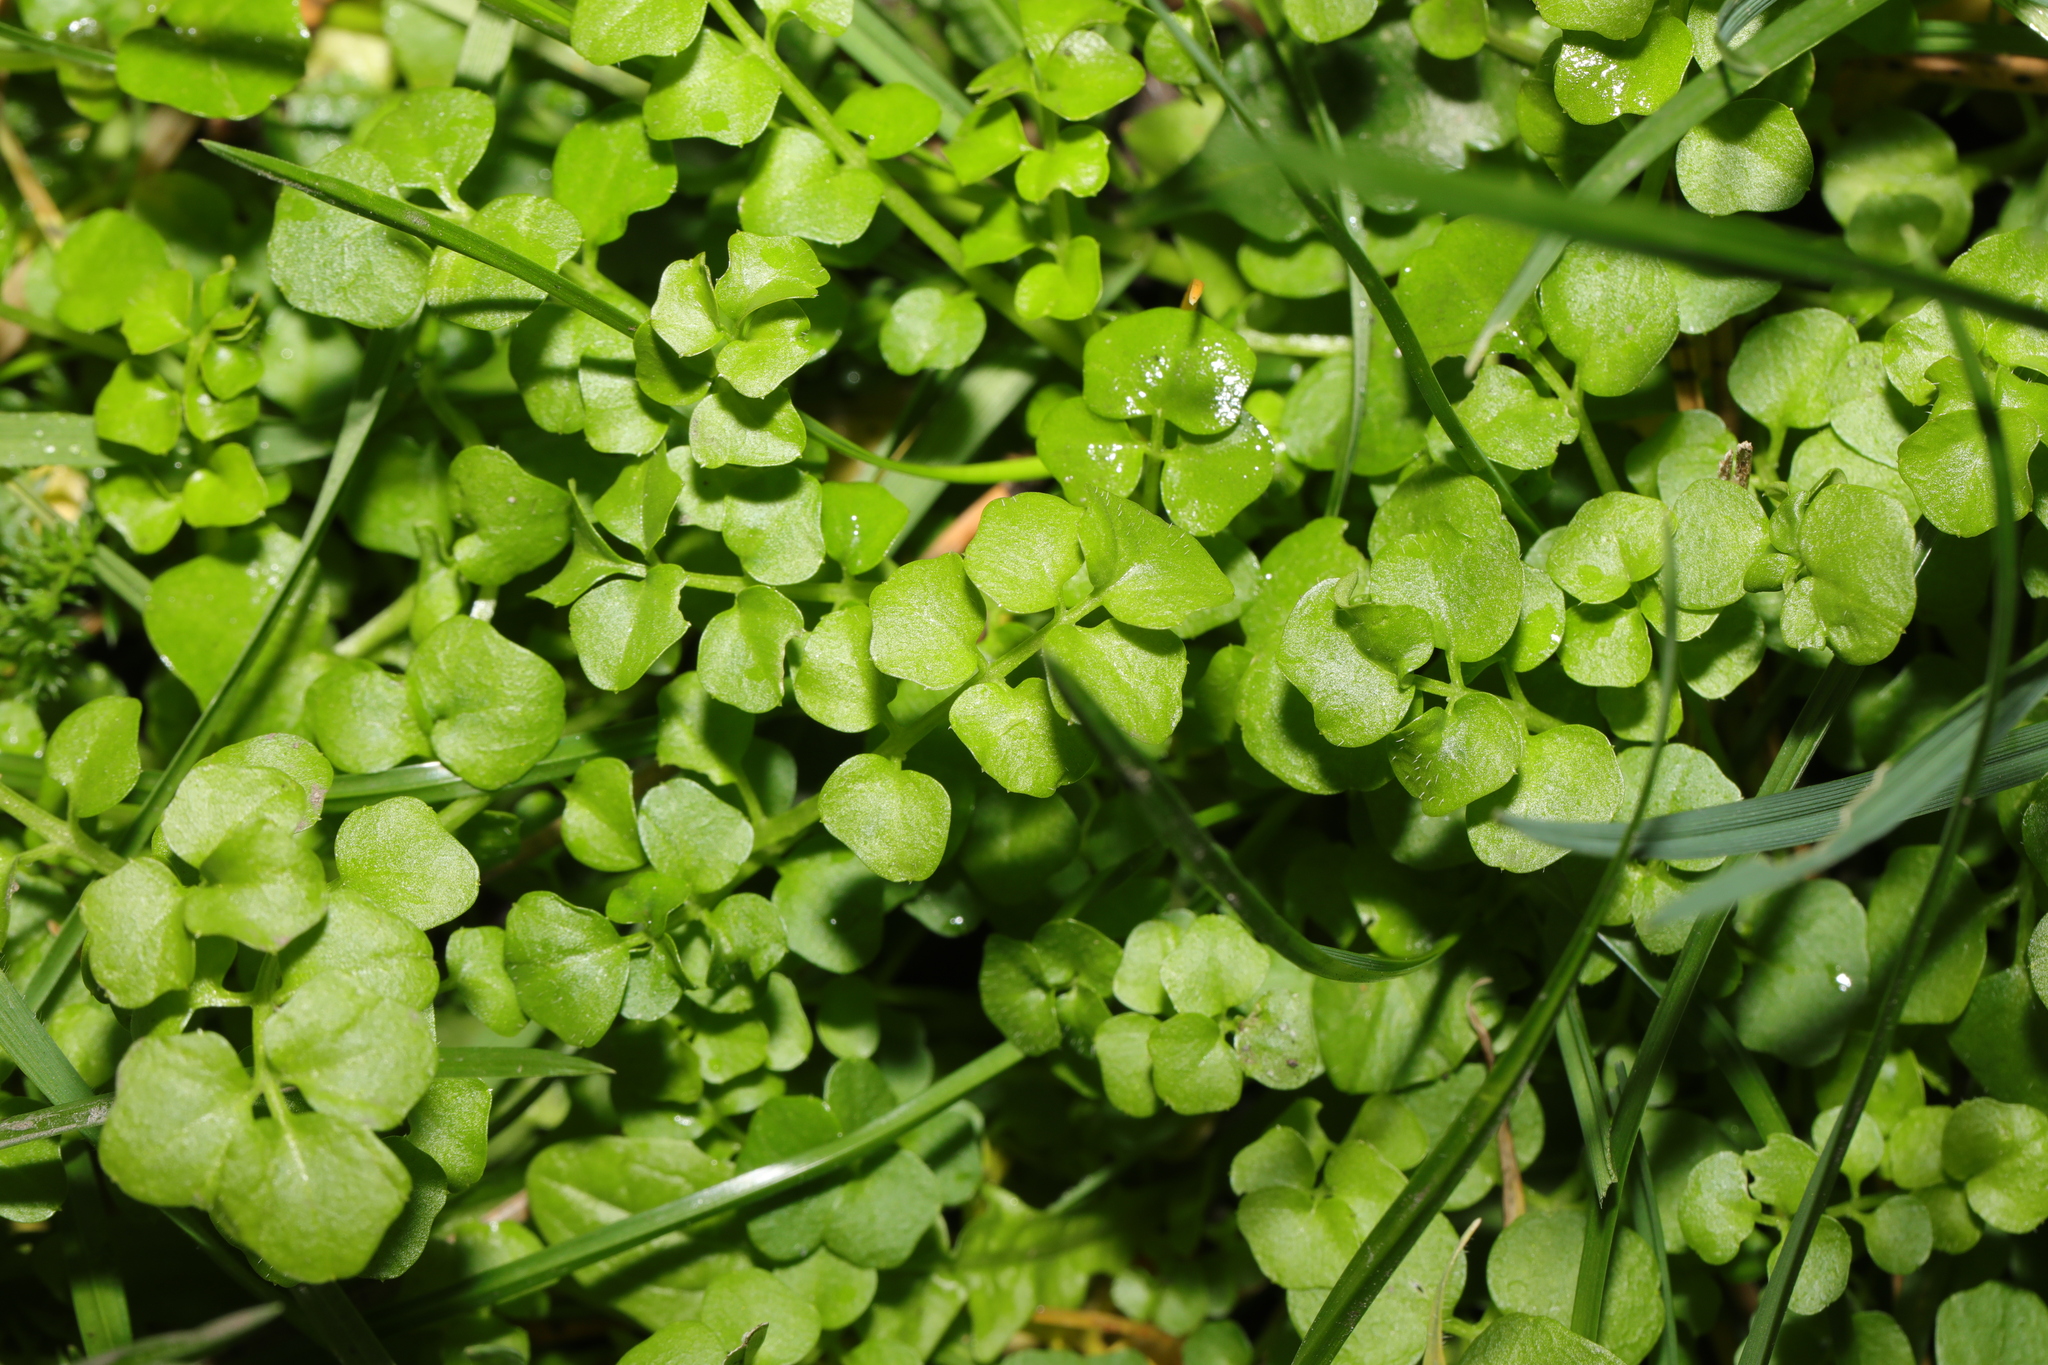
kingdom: Plantae
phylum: Tracheophyta
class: Magnoliopsida
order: Brassicales
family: Brassicaceae
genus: Cardamine
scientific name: Cardamine hirsuta
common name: Hairy bittercress
